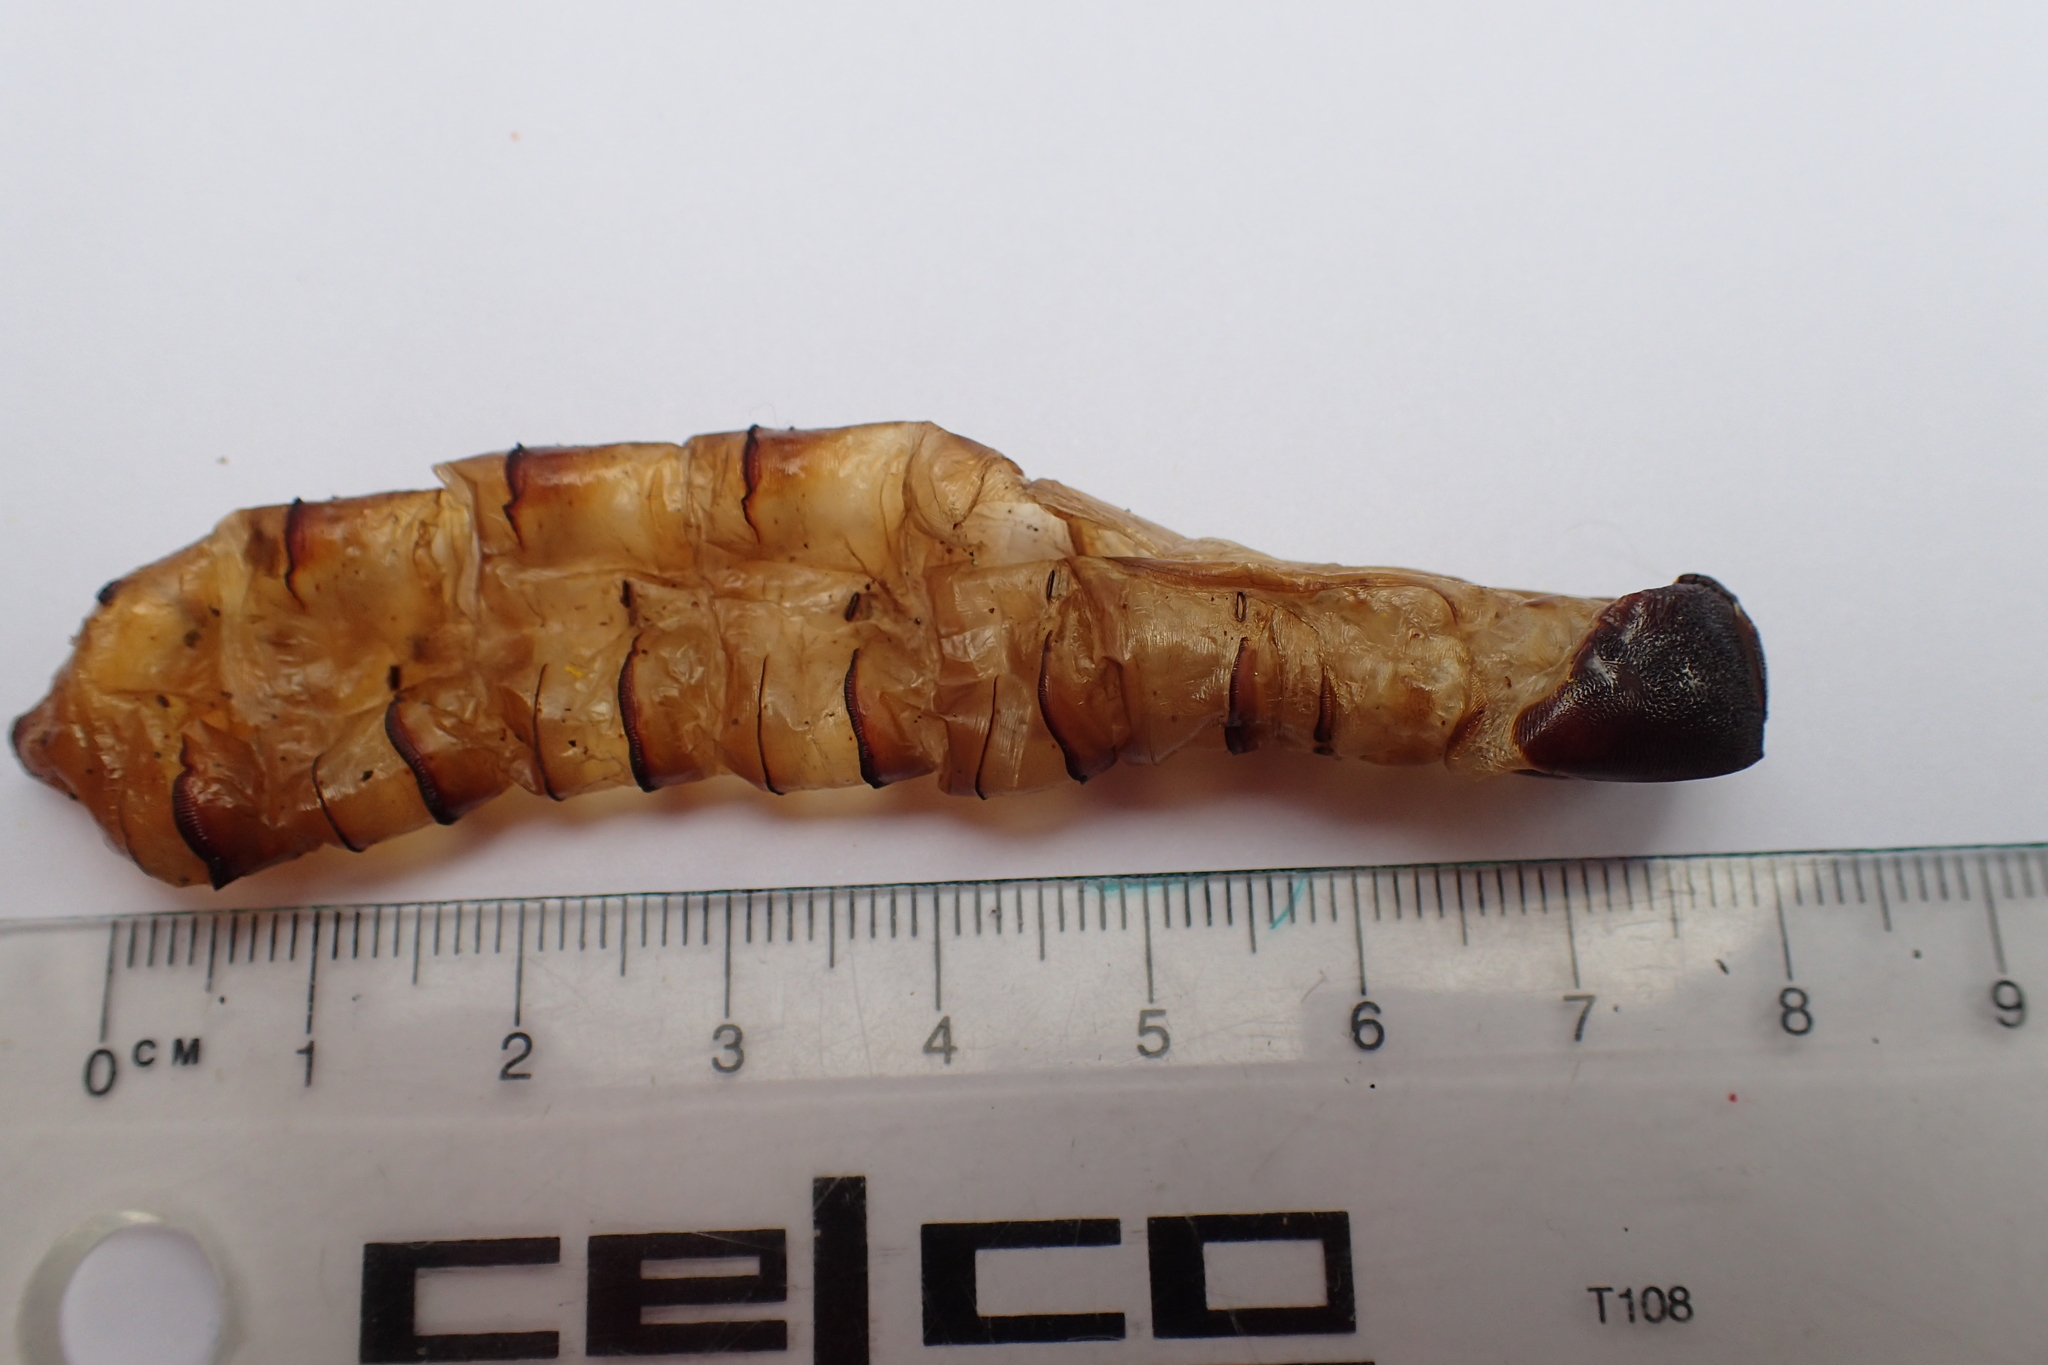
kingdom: Animalia
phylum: Arthropoda
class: Insecta
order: Lepidoptera
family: Hepialidae
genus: Aenetus
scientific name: Aenetus virescens
